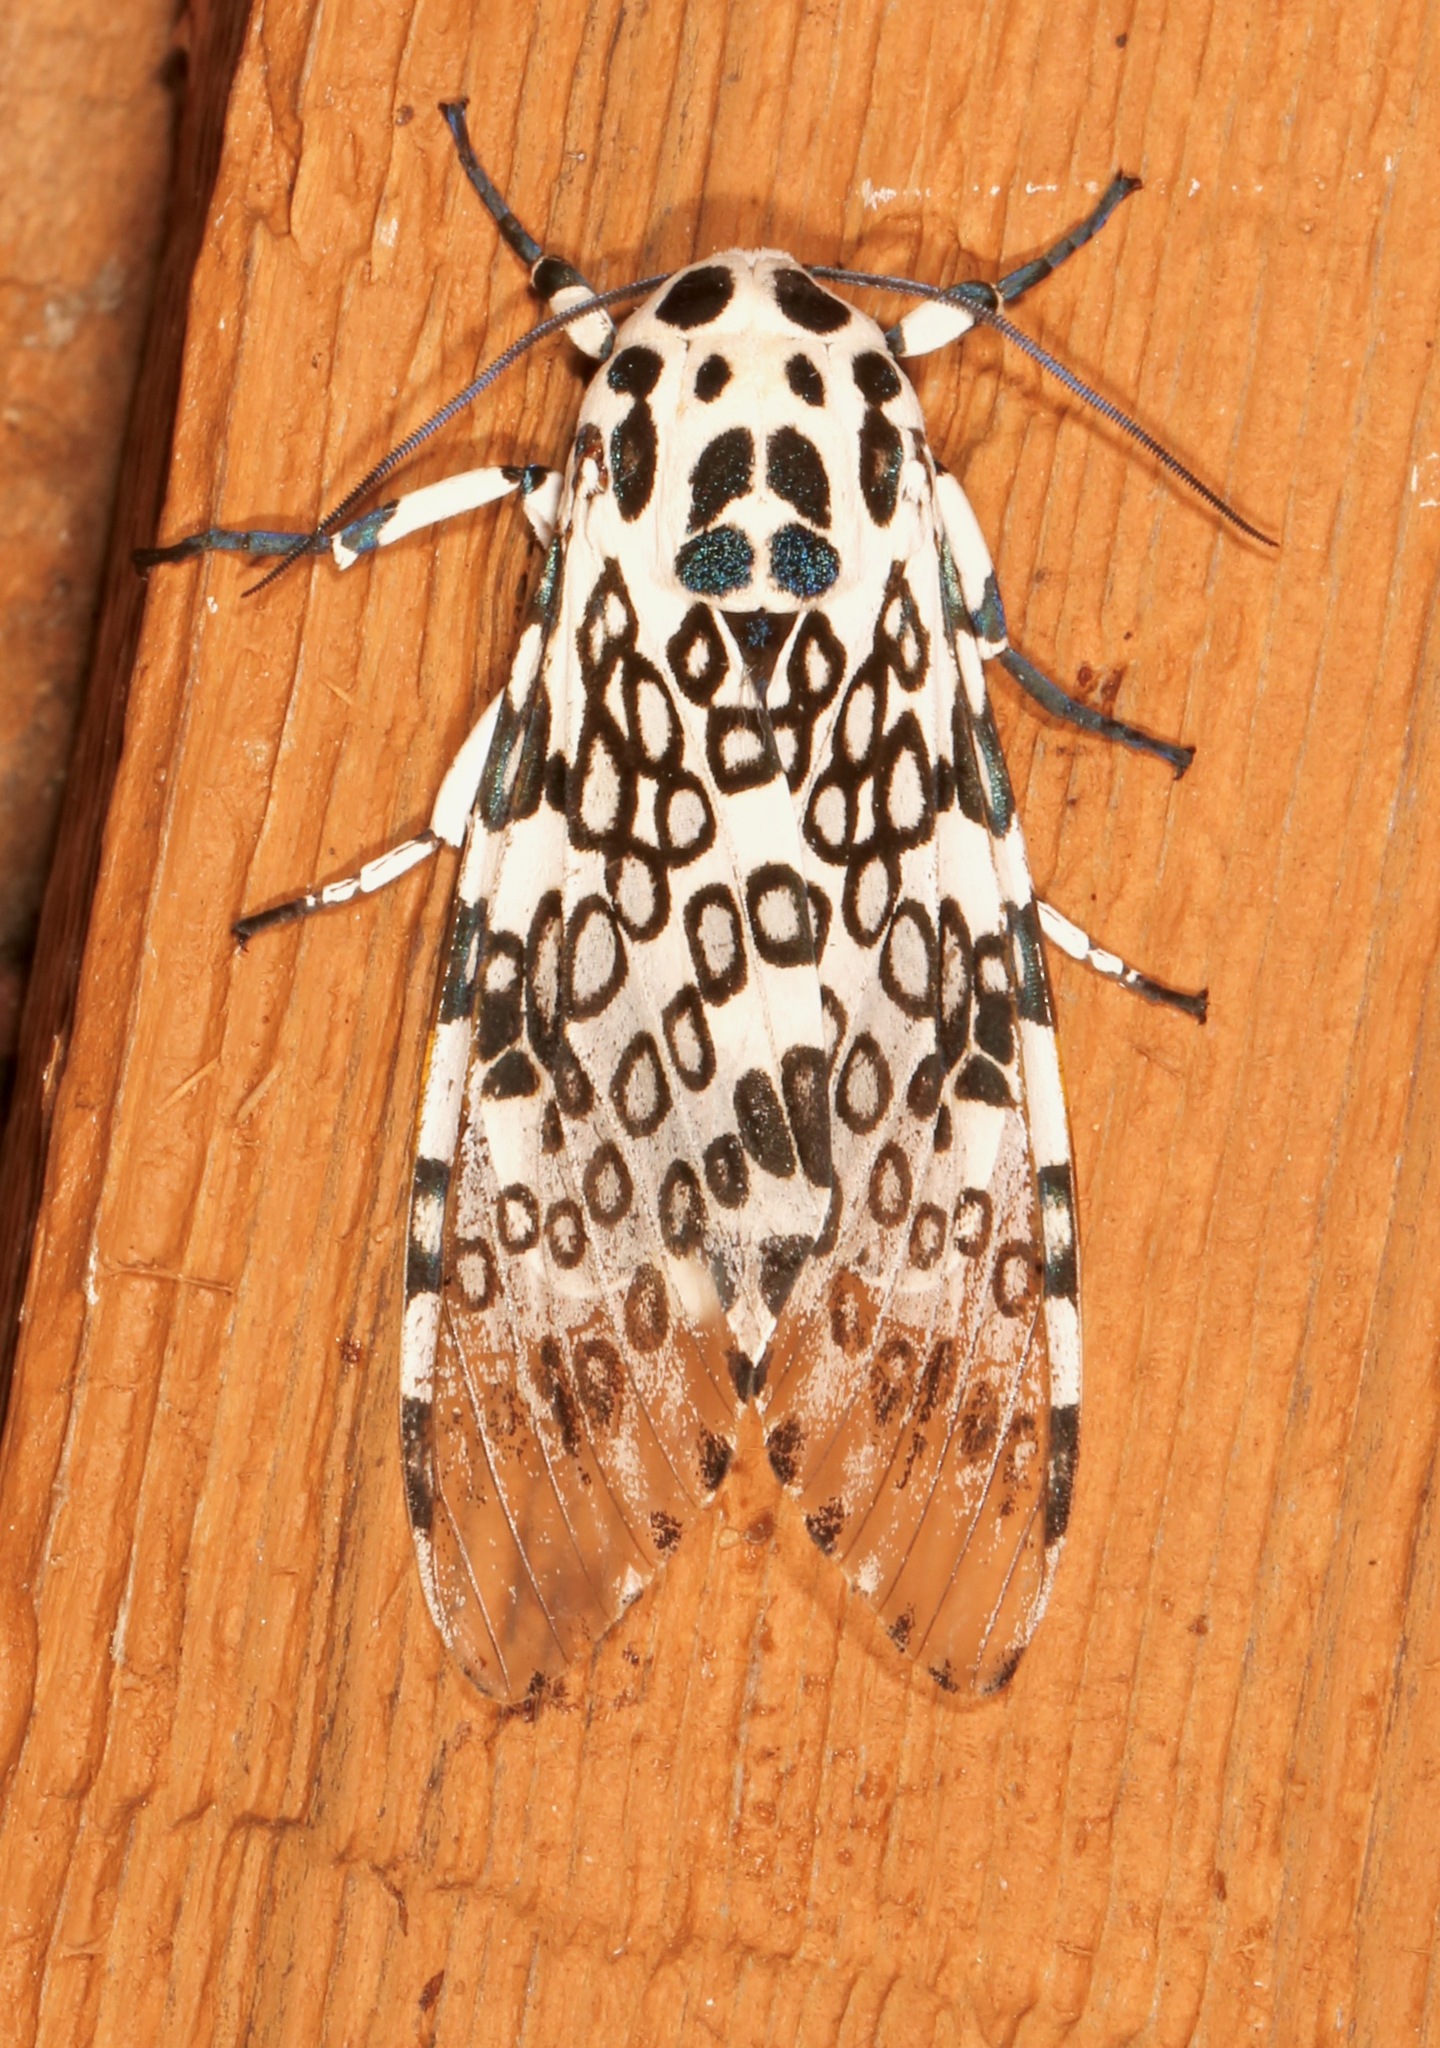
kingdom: Animalia
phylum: Arthropoda
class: Insecta
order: Lepidoptera
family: Erebidae
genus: Hypercompe
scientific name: Hypercompe scribonia
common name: Giant leopard moth
